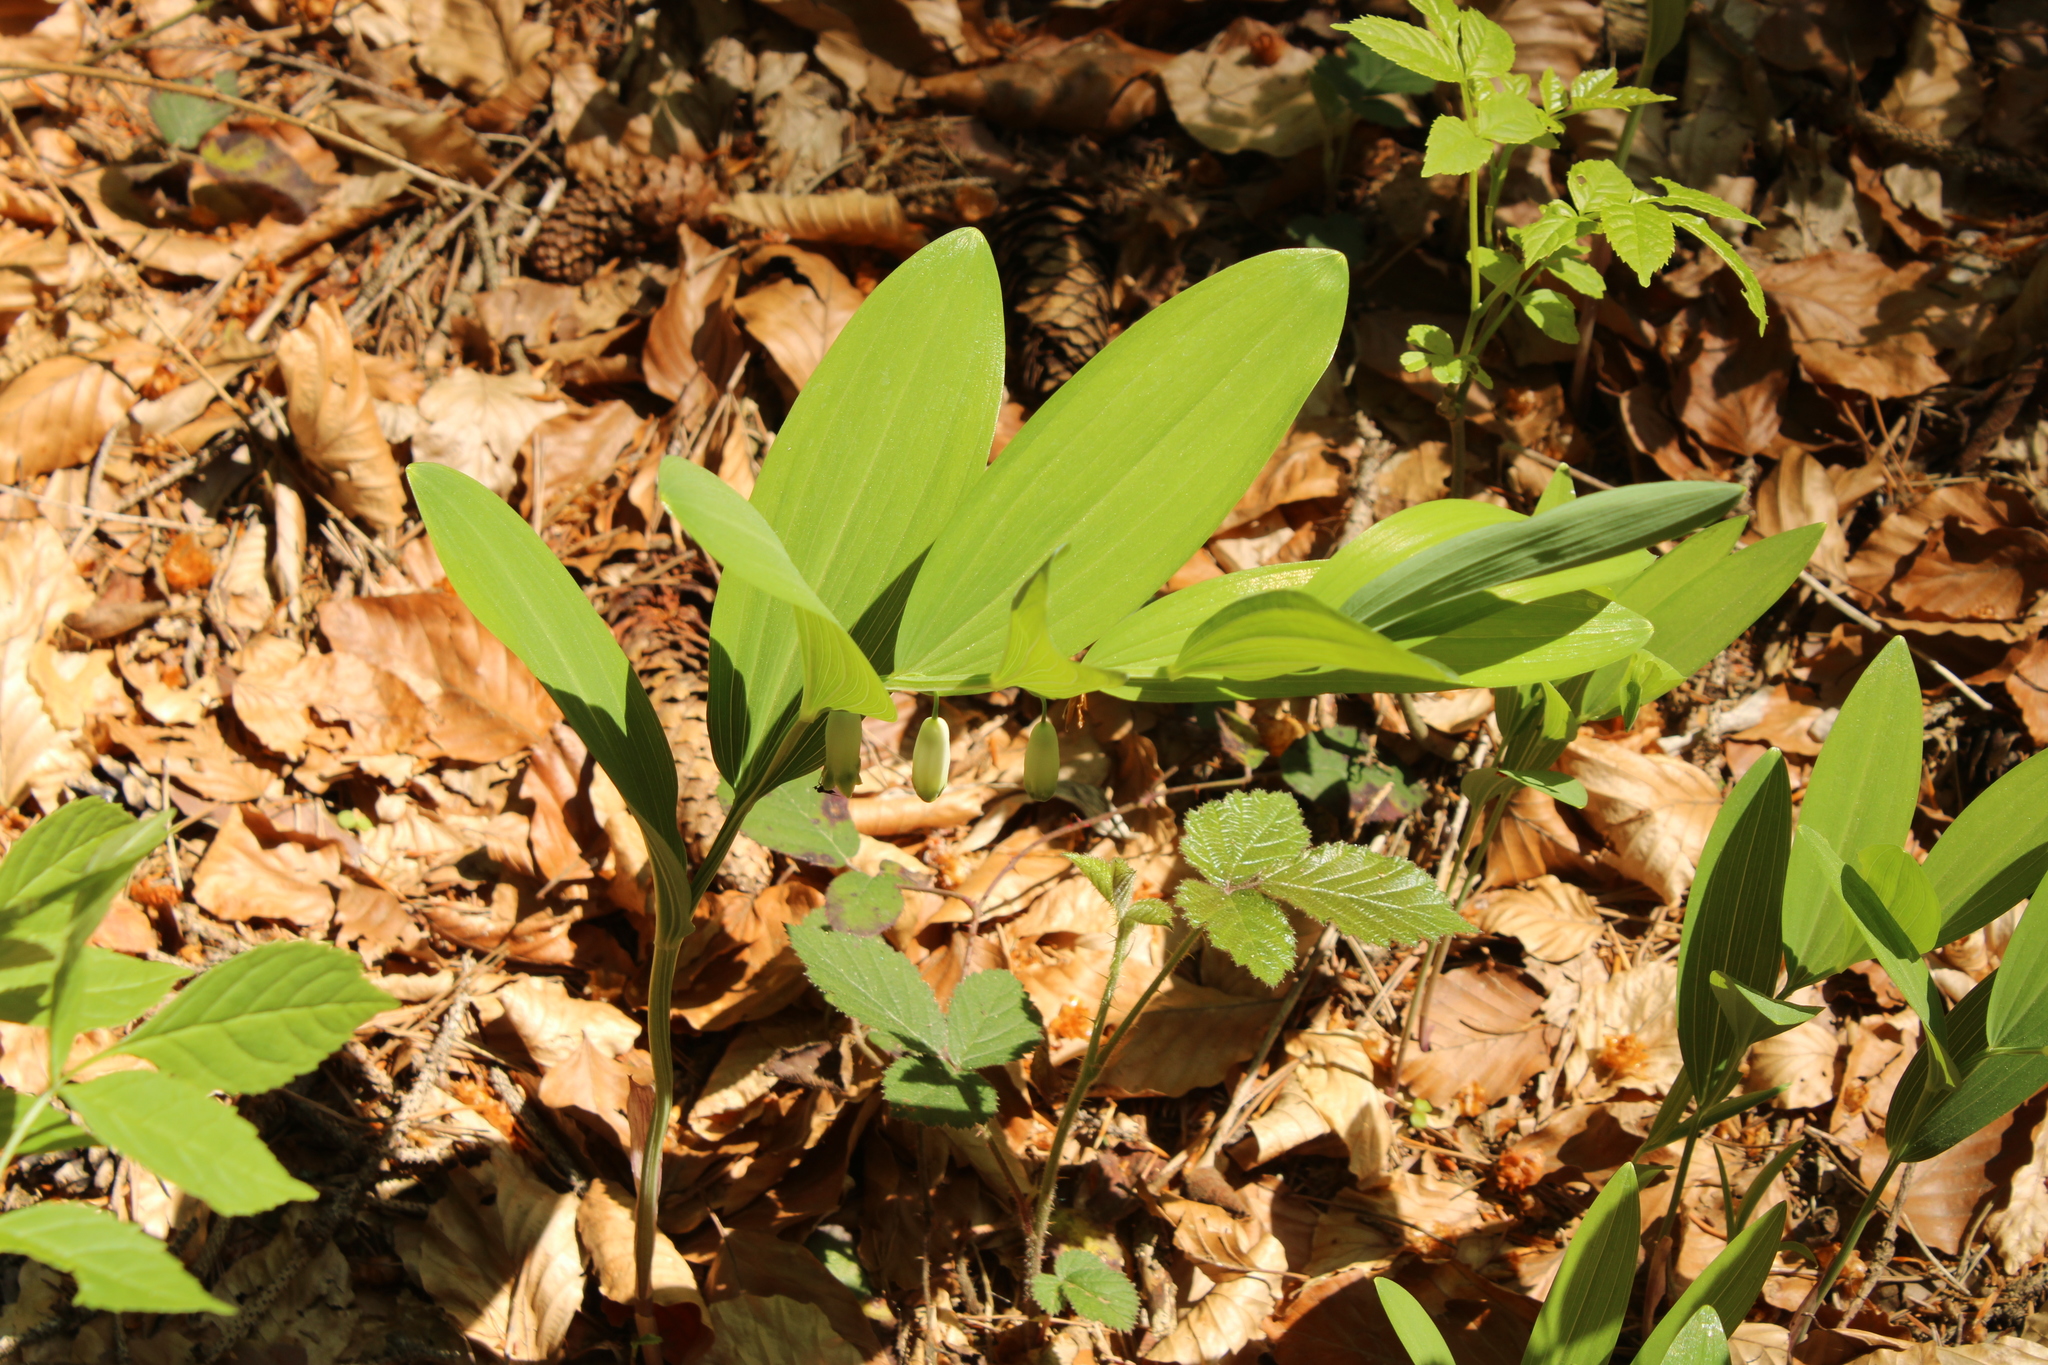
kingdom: Plantae
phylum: Tracheophyta
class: Liliopsida
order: Asparagales
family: Asparagaceae
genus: Polygonatum
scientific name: Polygonatum odoratum
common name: Angular solomon's-seal
